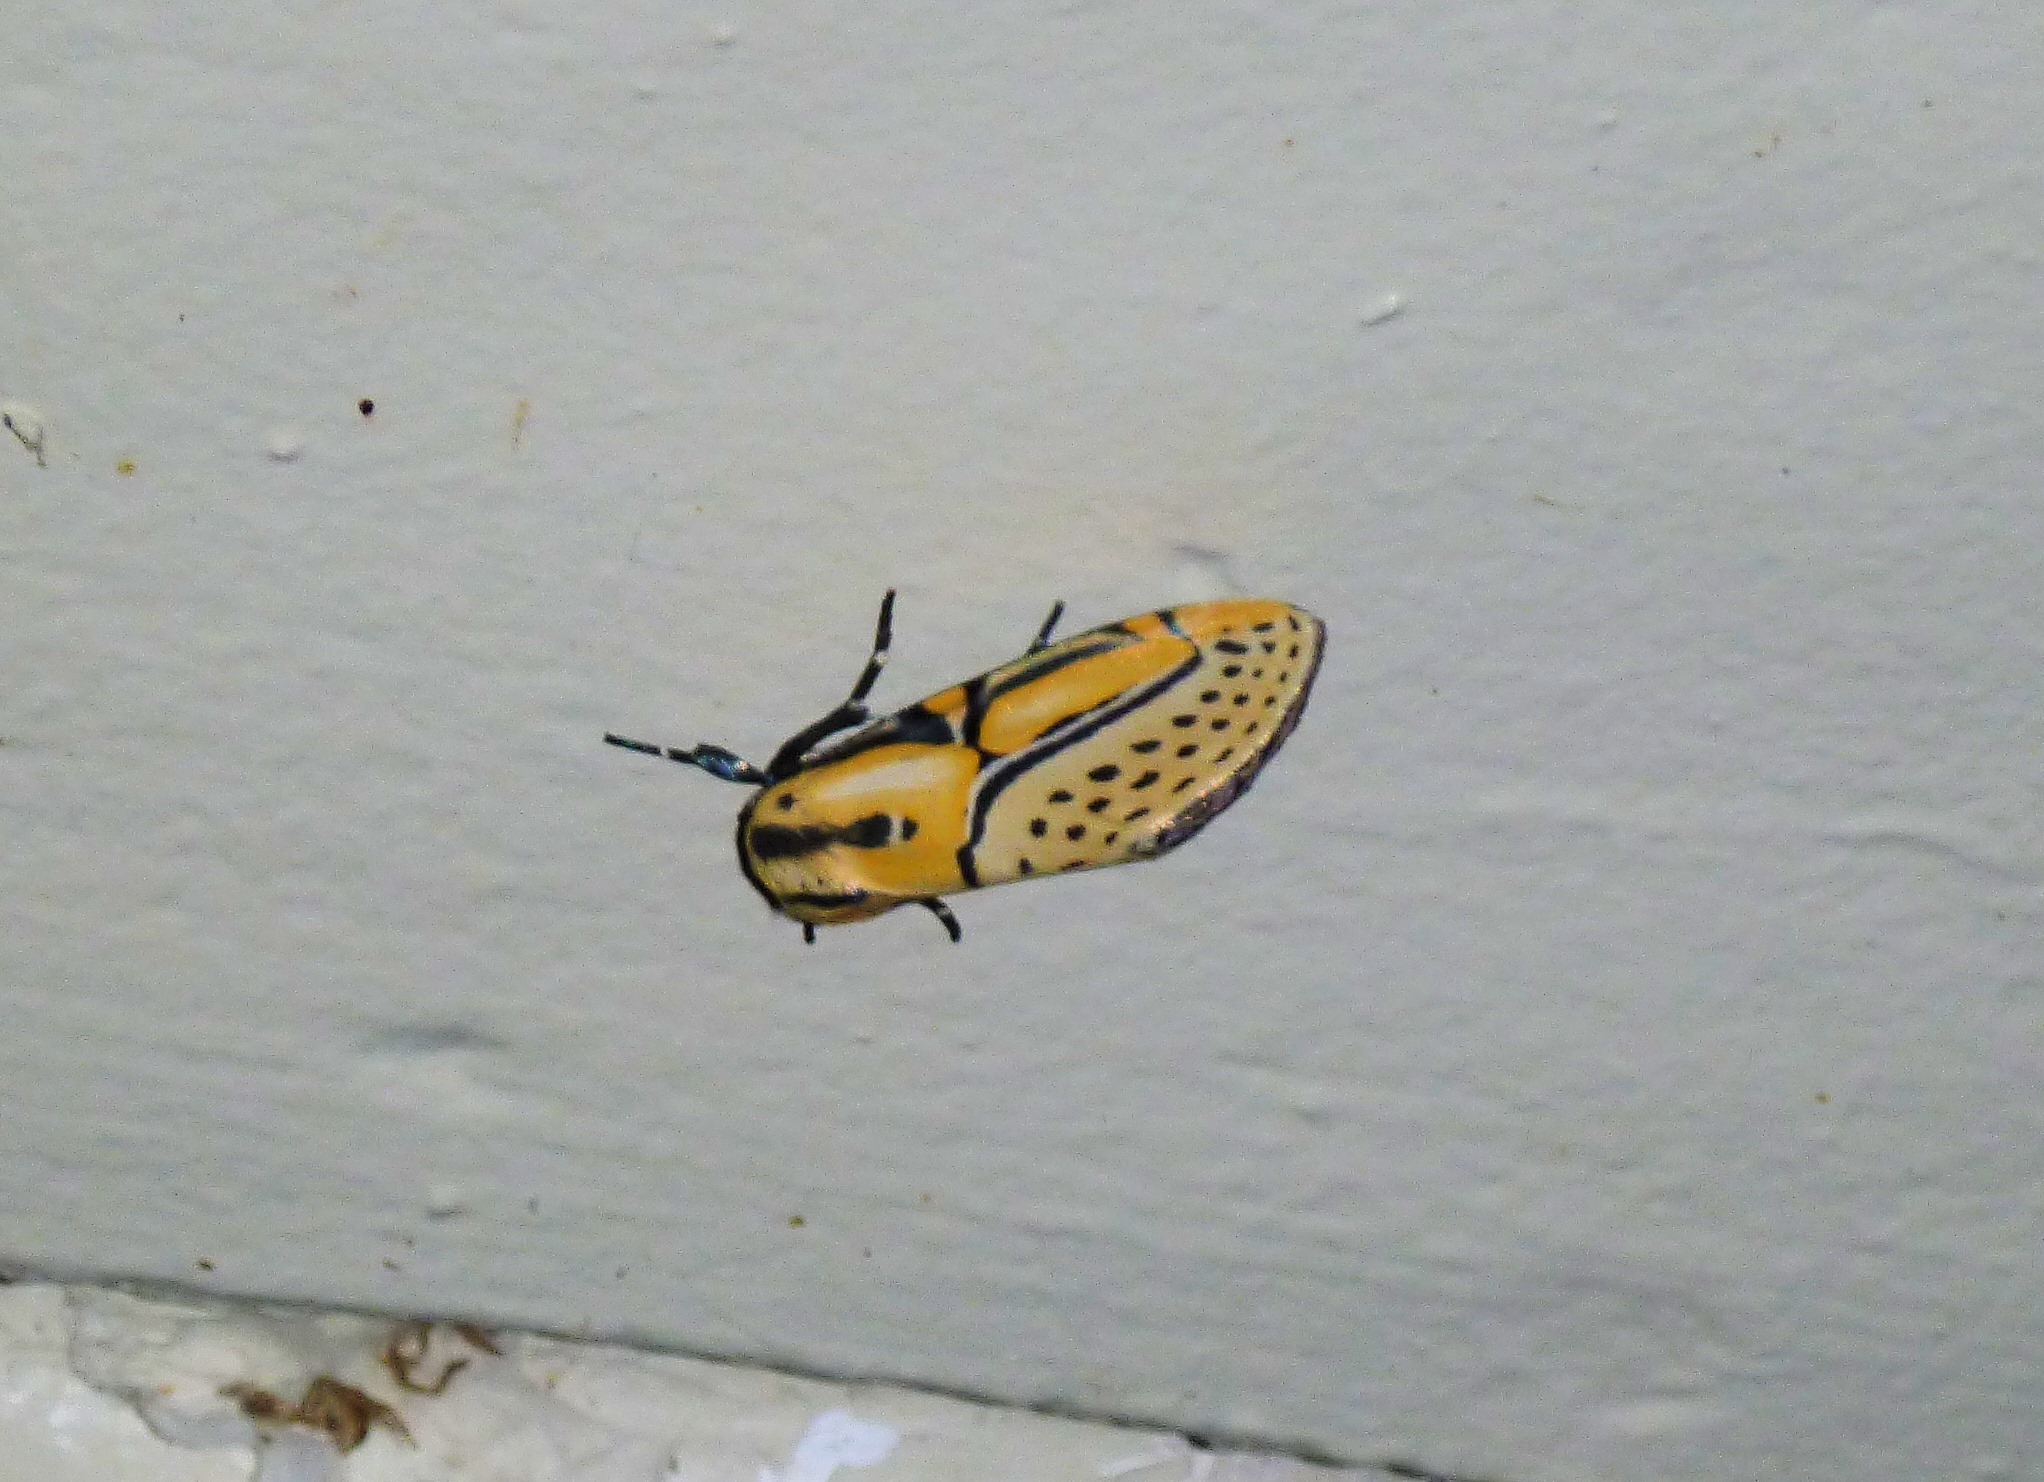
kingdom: Animalia
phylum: Arthropoda
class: Insecta
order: Lepidoptera
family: Erebidae
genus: Diphthera
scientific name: Diphthera festiva
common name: Hieroglyphic moth
